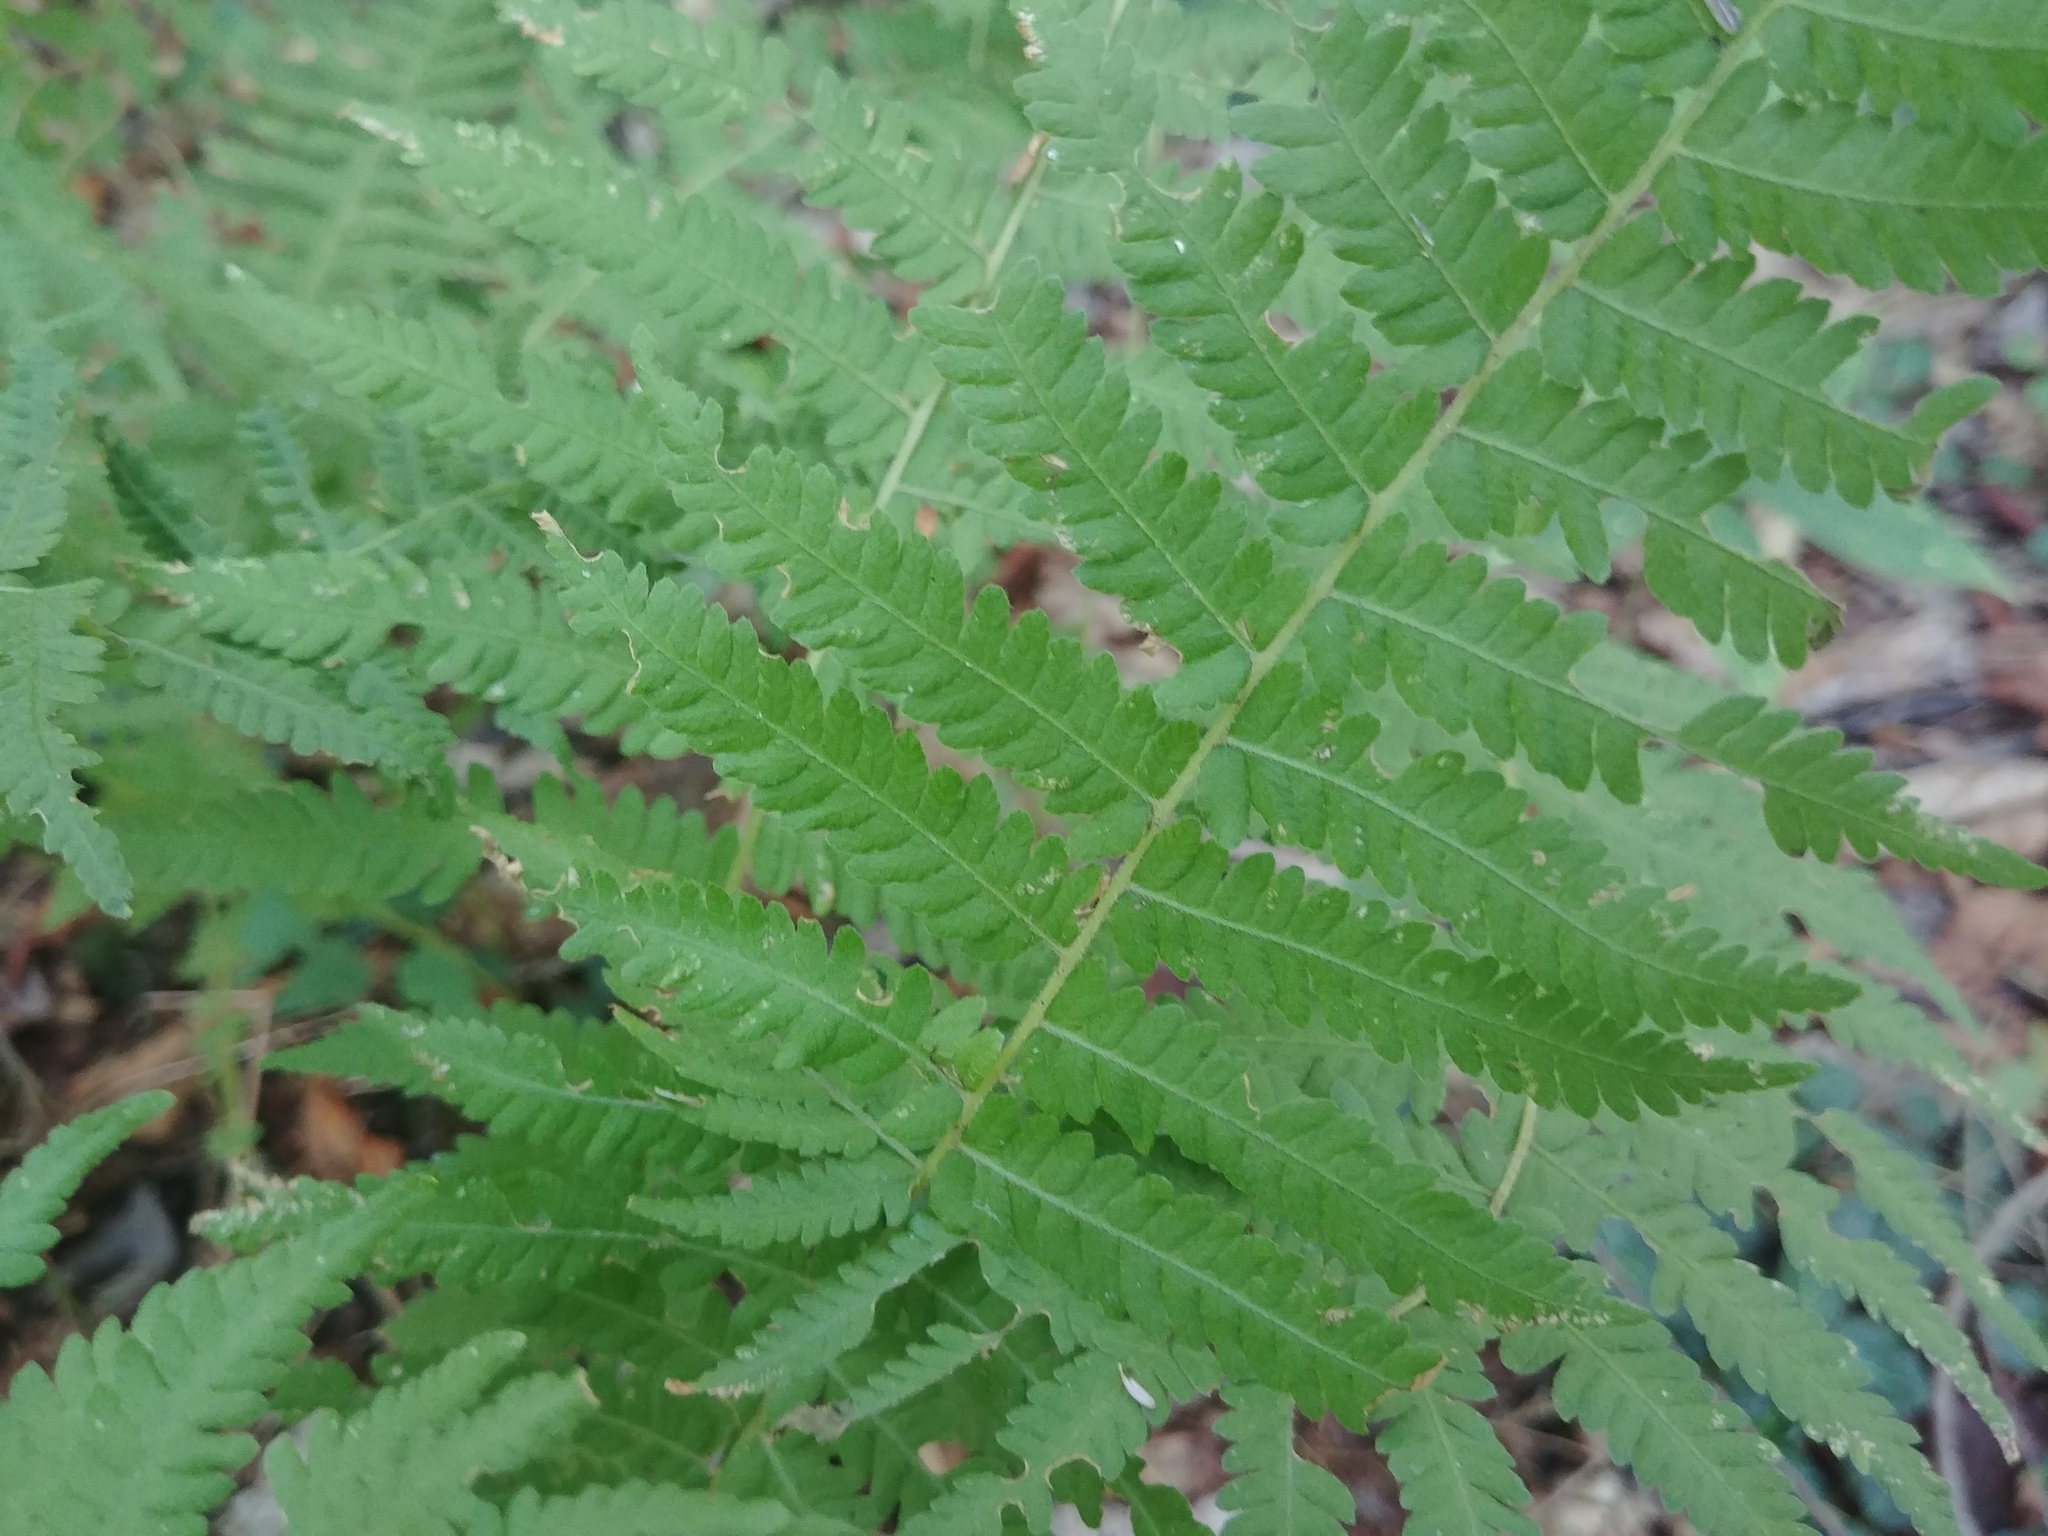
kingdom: Plantae
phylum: Tracheophyta
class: Polypodiopsida
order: Polypodiales
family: Thelypteridaceae
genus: Amauropelta
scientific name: Amauropelta noveboracensis
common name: New york fern
